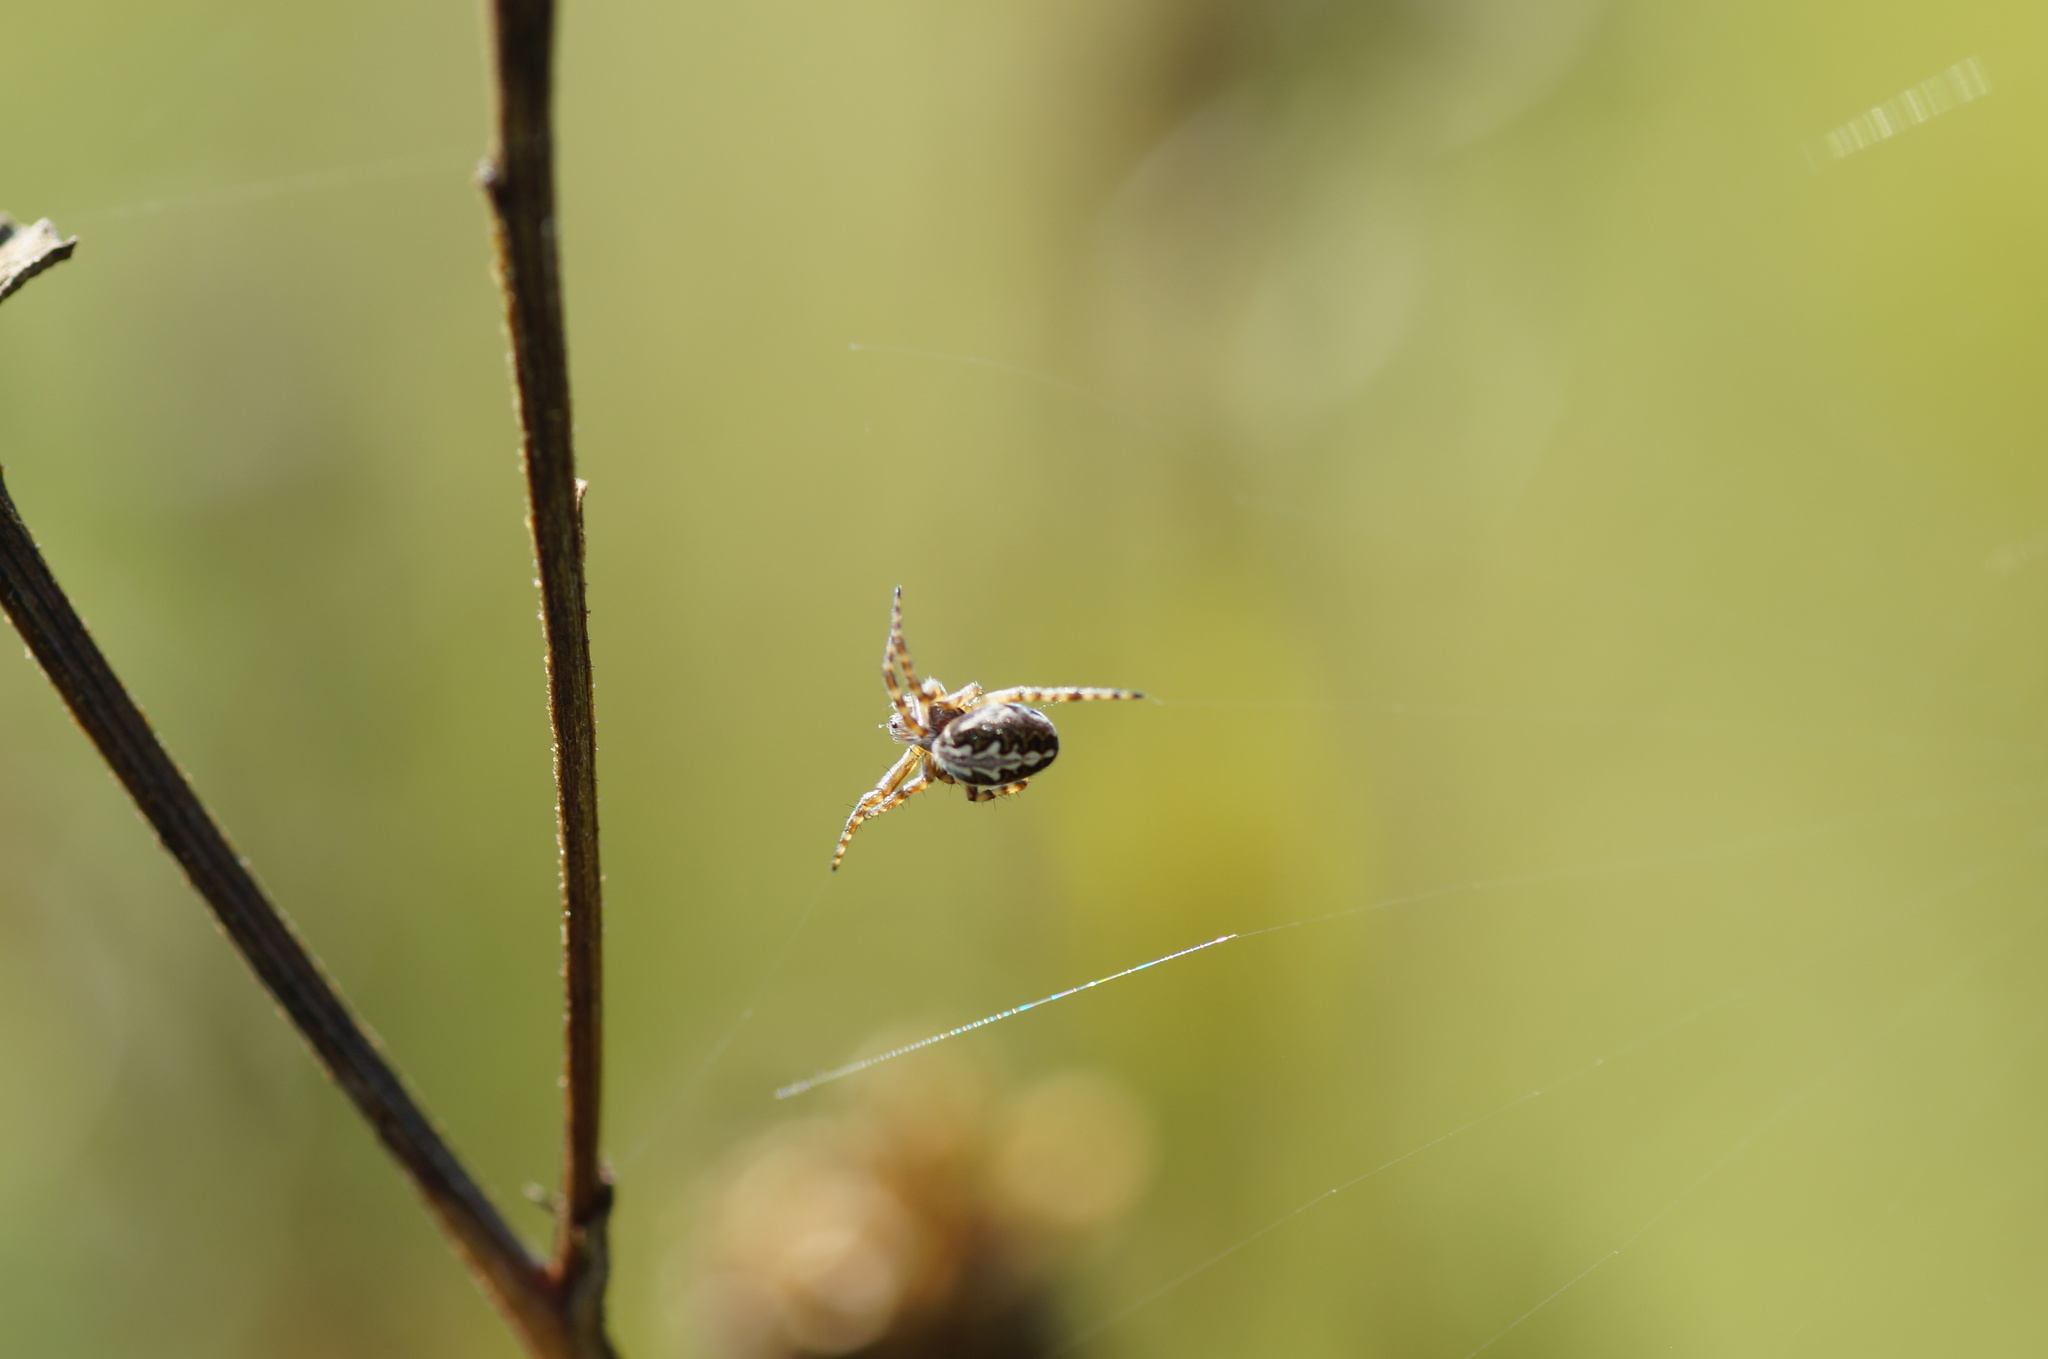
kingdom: Animalia
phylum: Arthropoda
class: Arachnida
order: Araneae
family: Araneidae
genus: Aculepeira
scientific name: Aculepeira ceropegia
